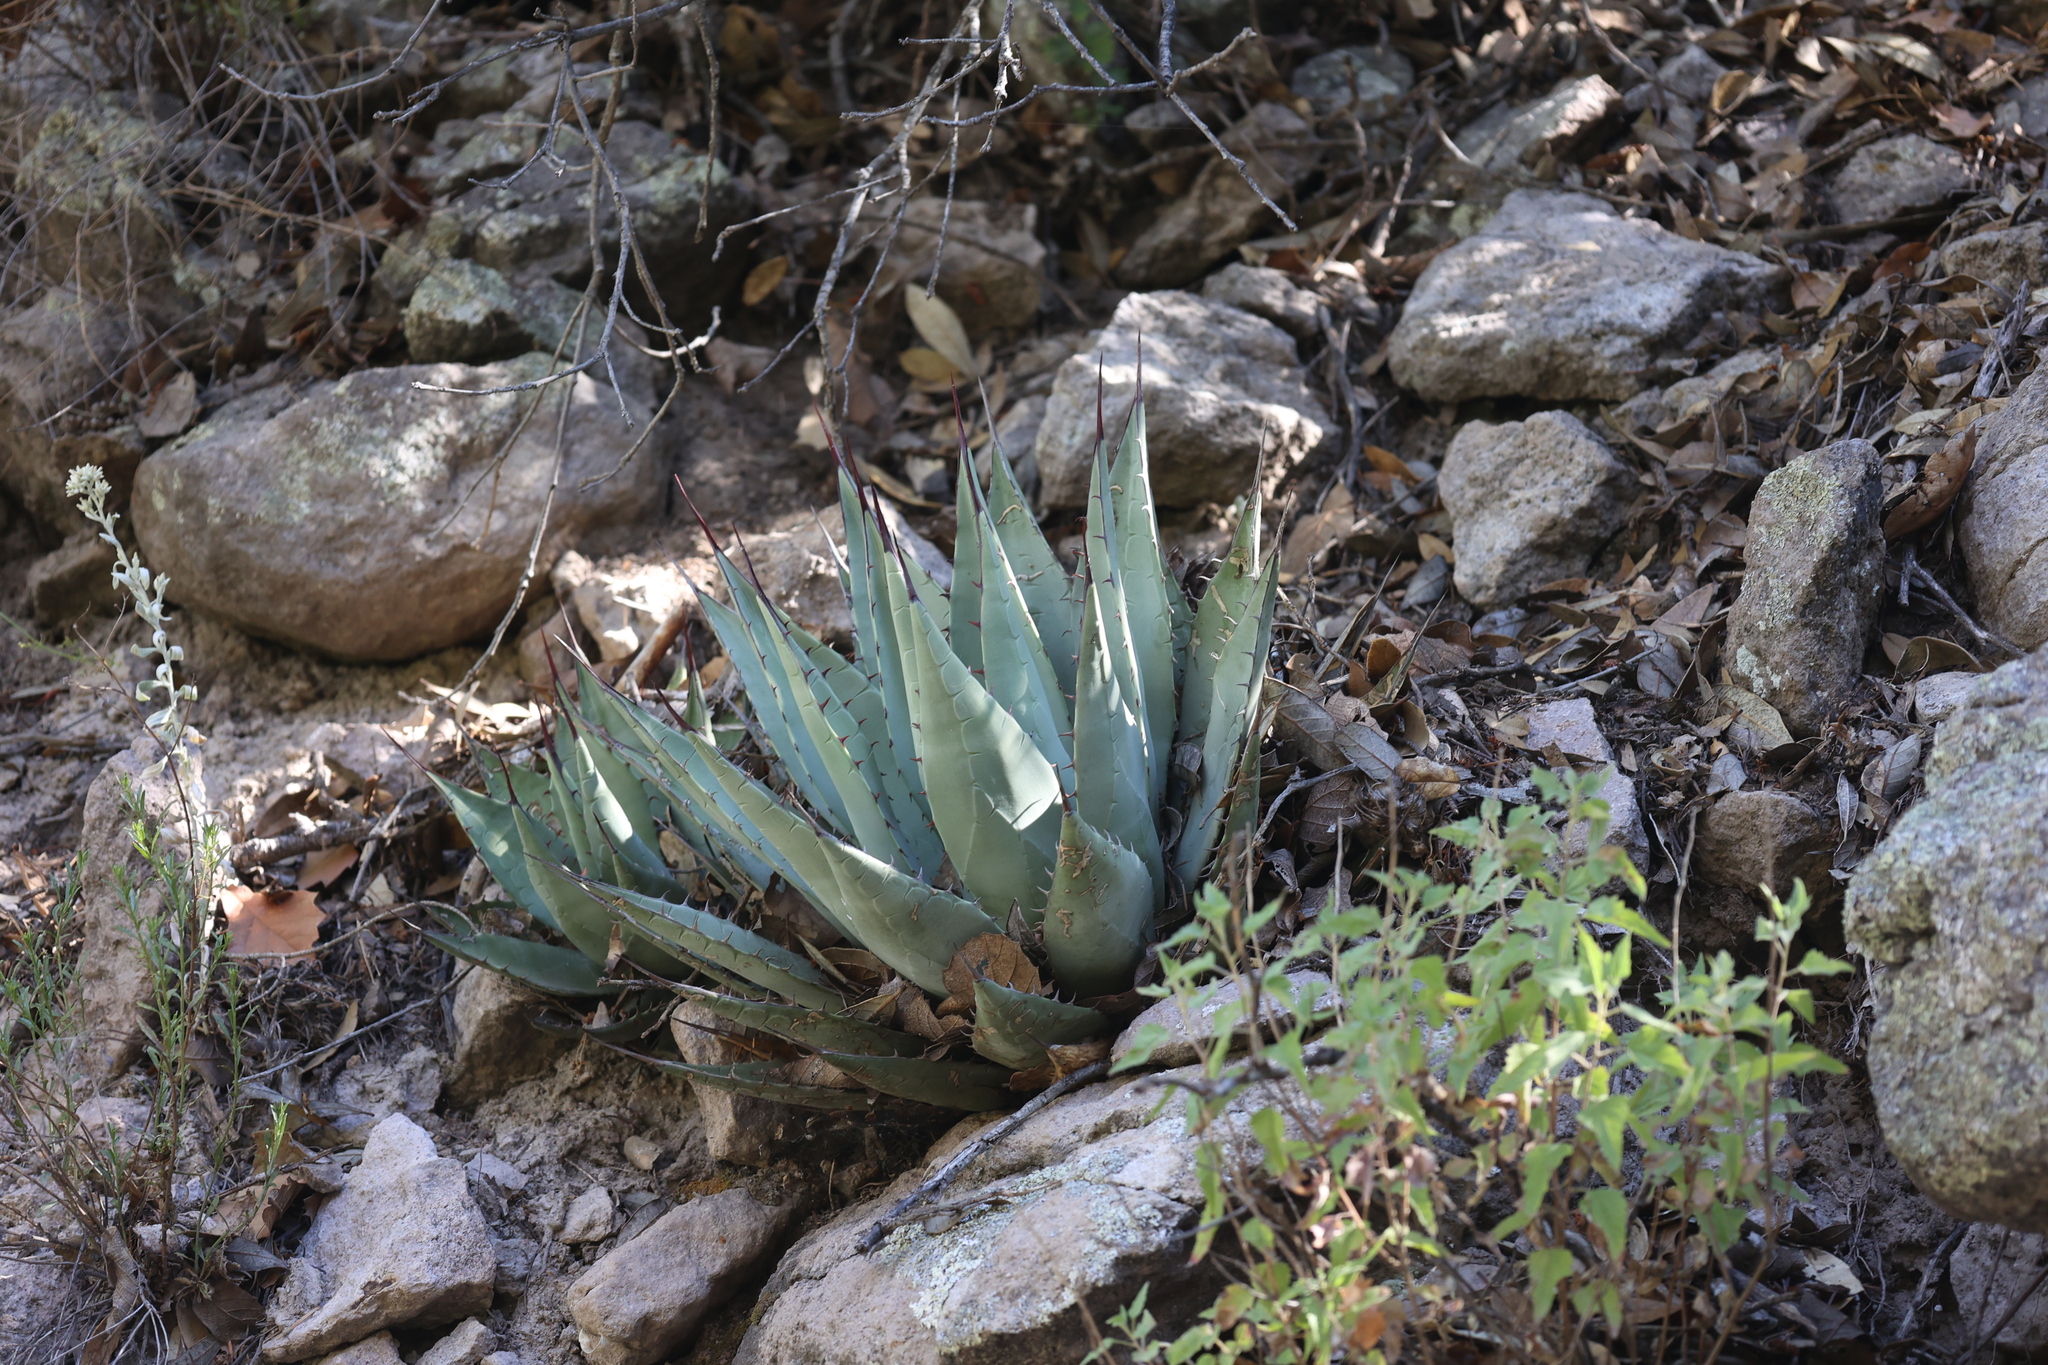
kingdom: Plantae
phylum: Tracheophyta
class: Liliopsida
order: Asparagales
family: Asparagaceae
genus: Agave
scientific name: Agave parryi
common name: Parry's agave
